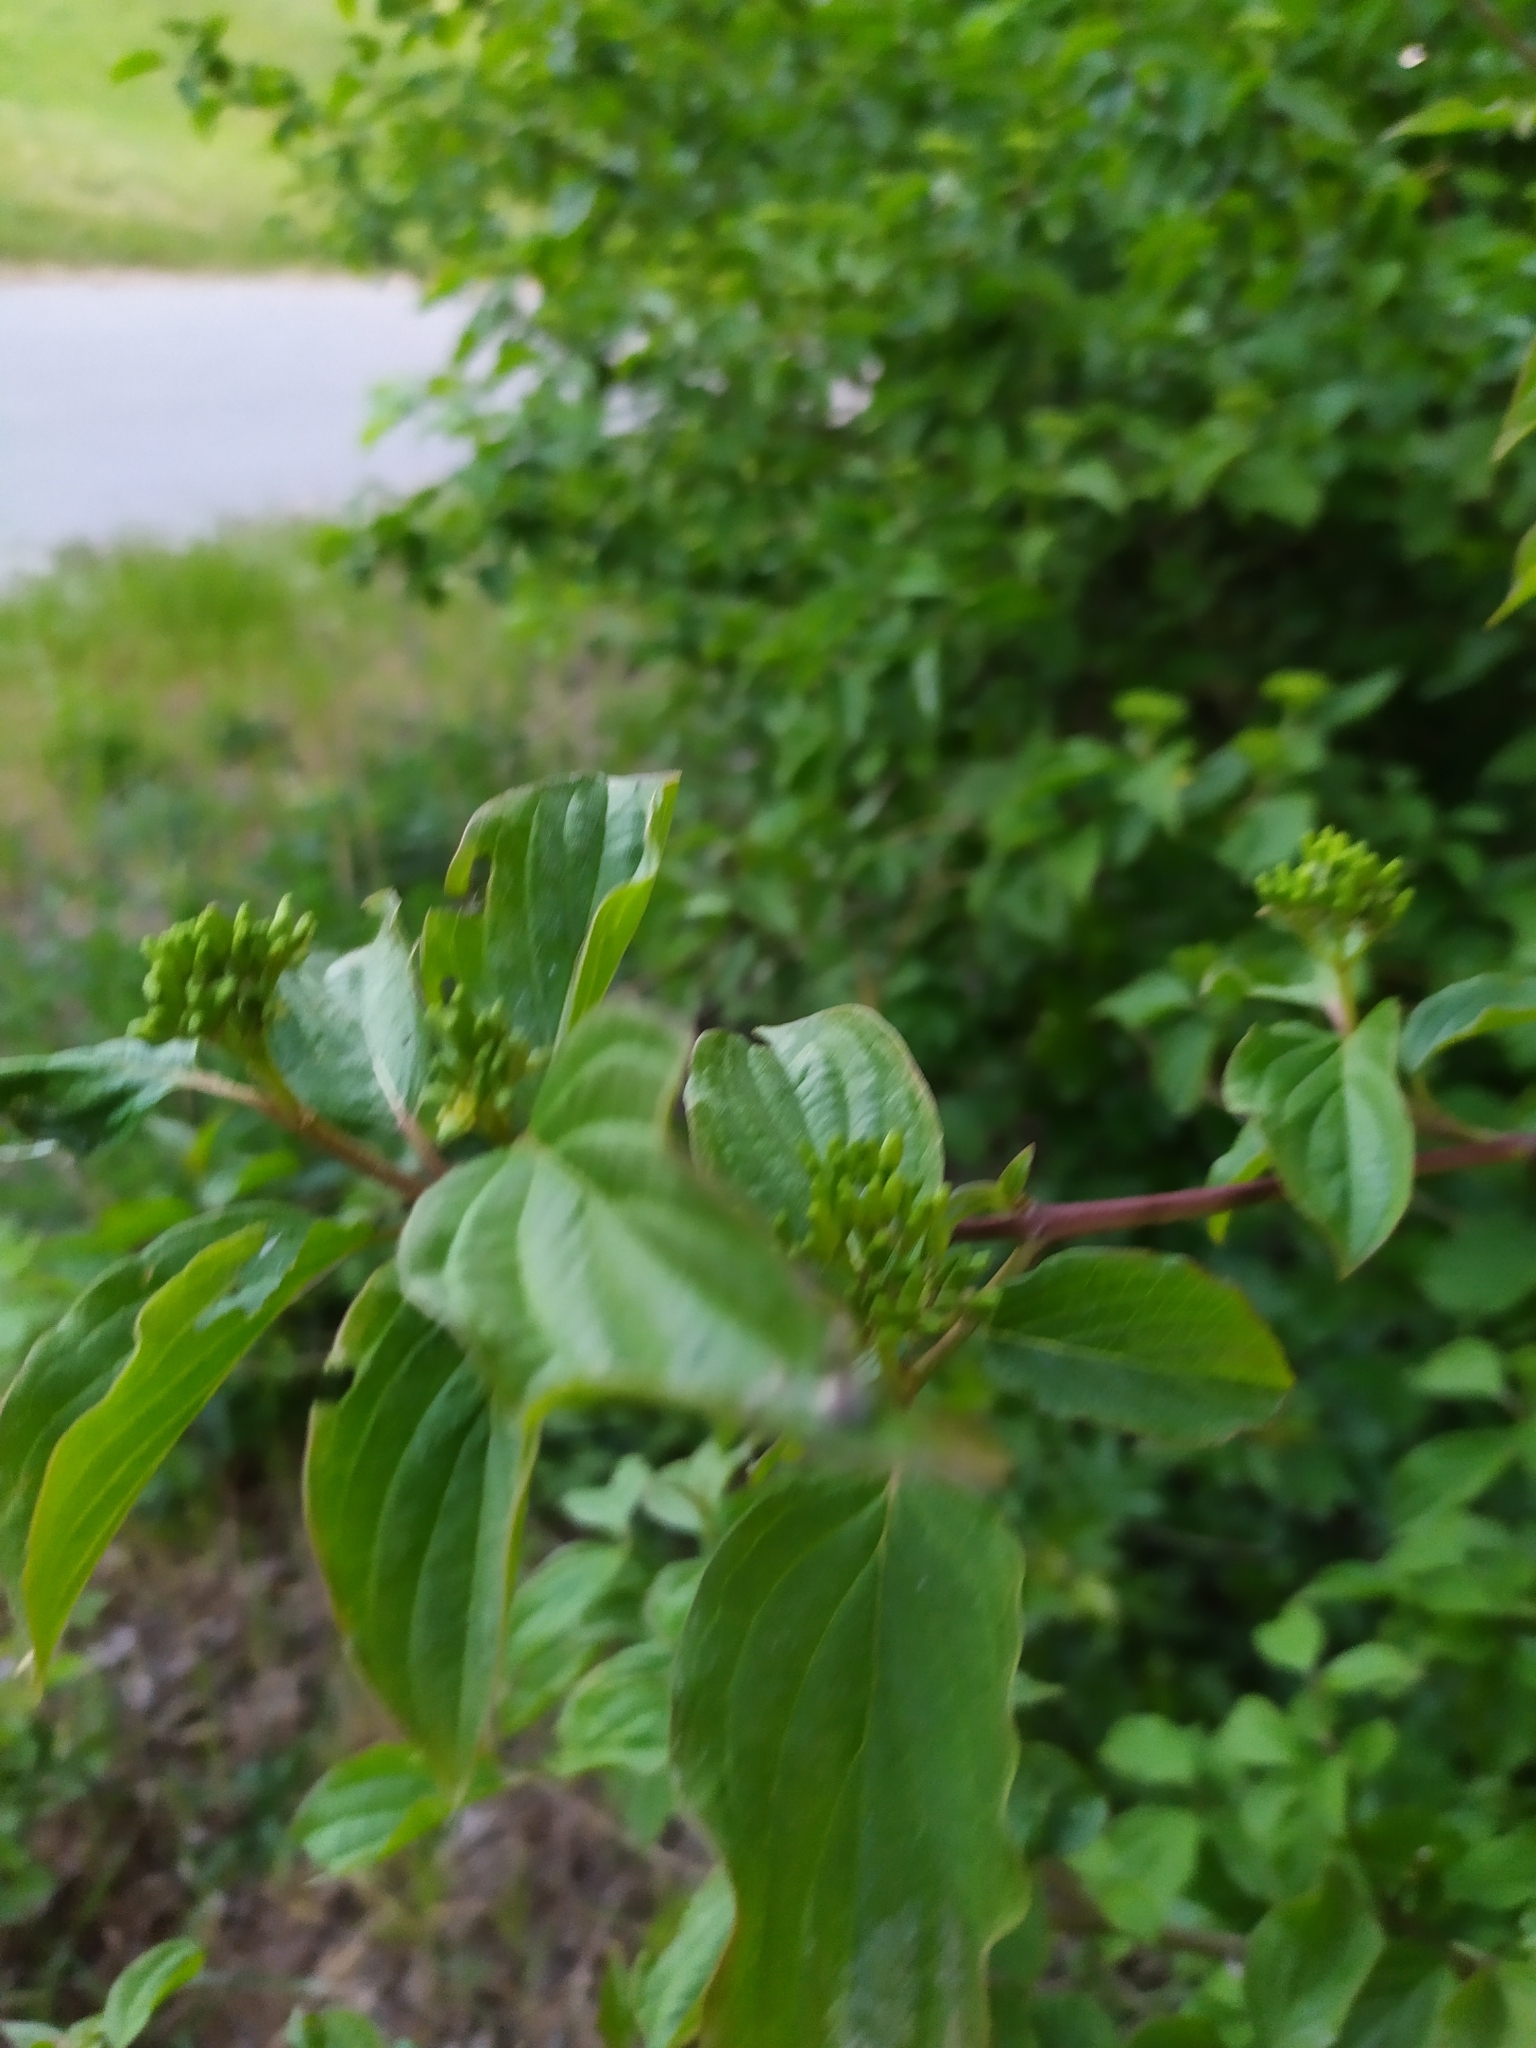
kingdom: Plantae
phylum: Tracheophyta
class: Magnoliopsida
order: Cornales
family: Cornaceae
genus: Cornus
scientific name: Cornus sanguinea
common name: Dogwood
